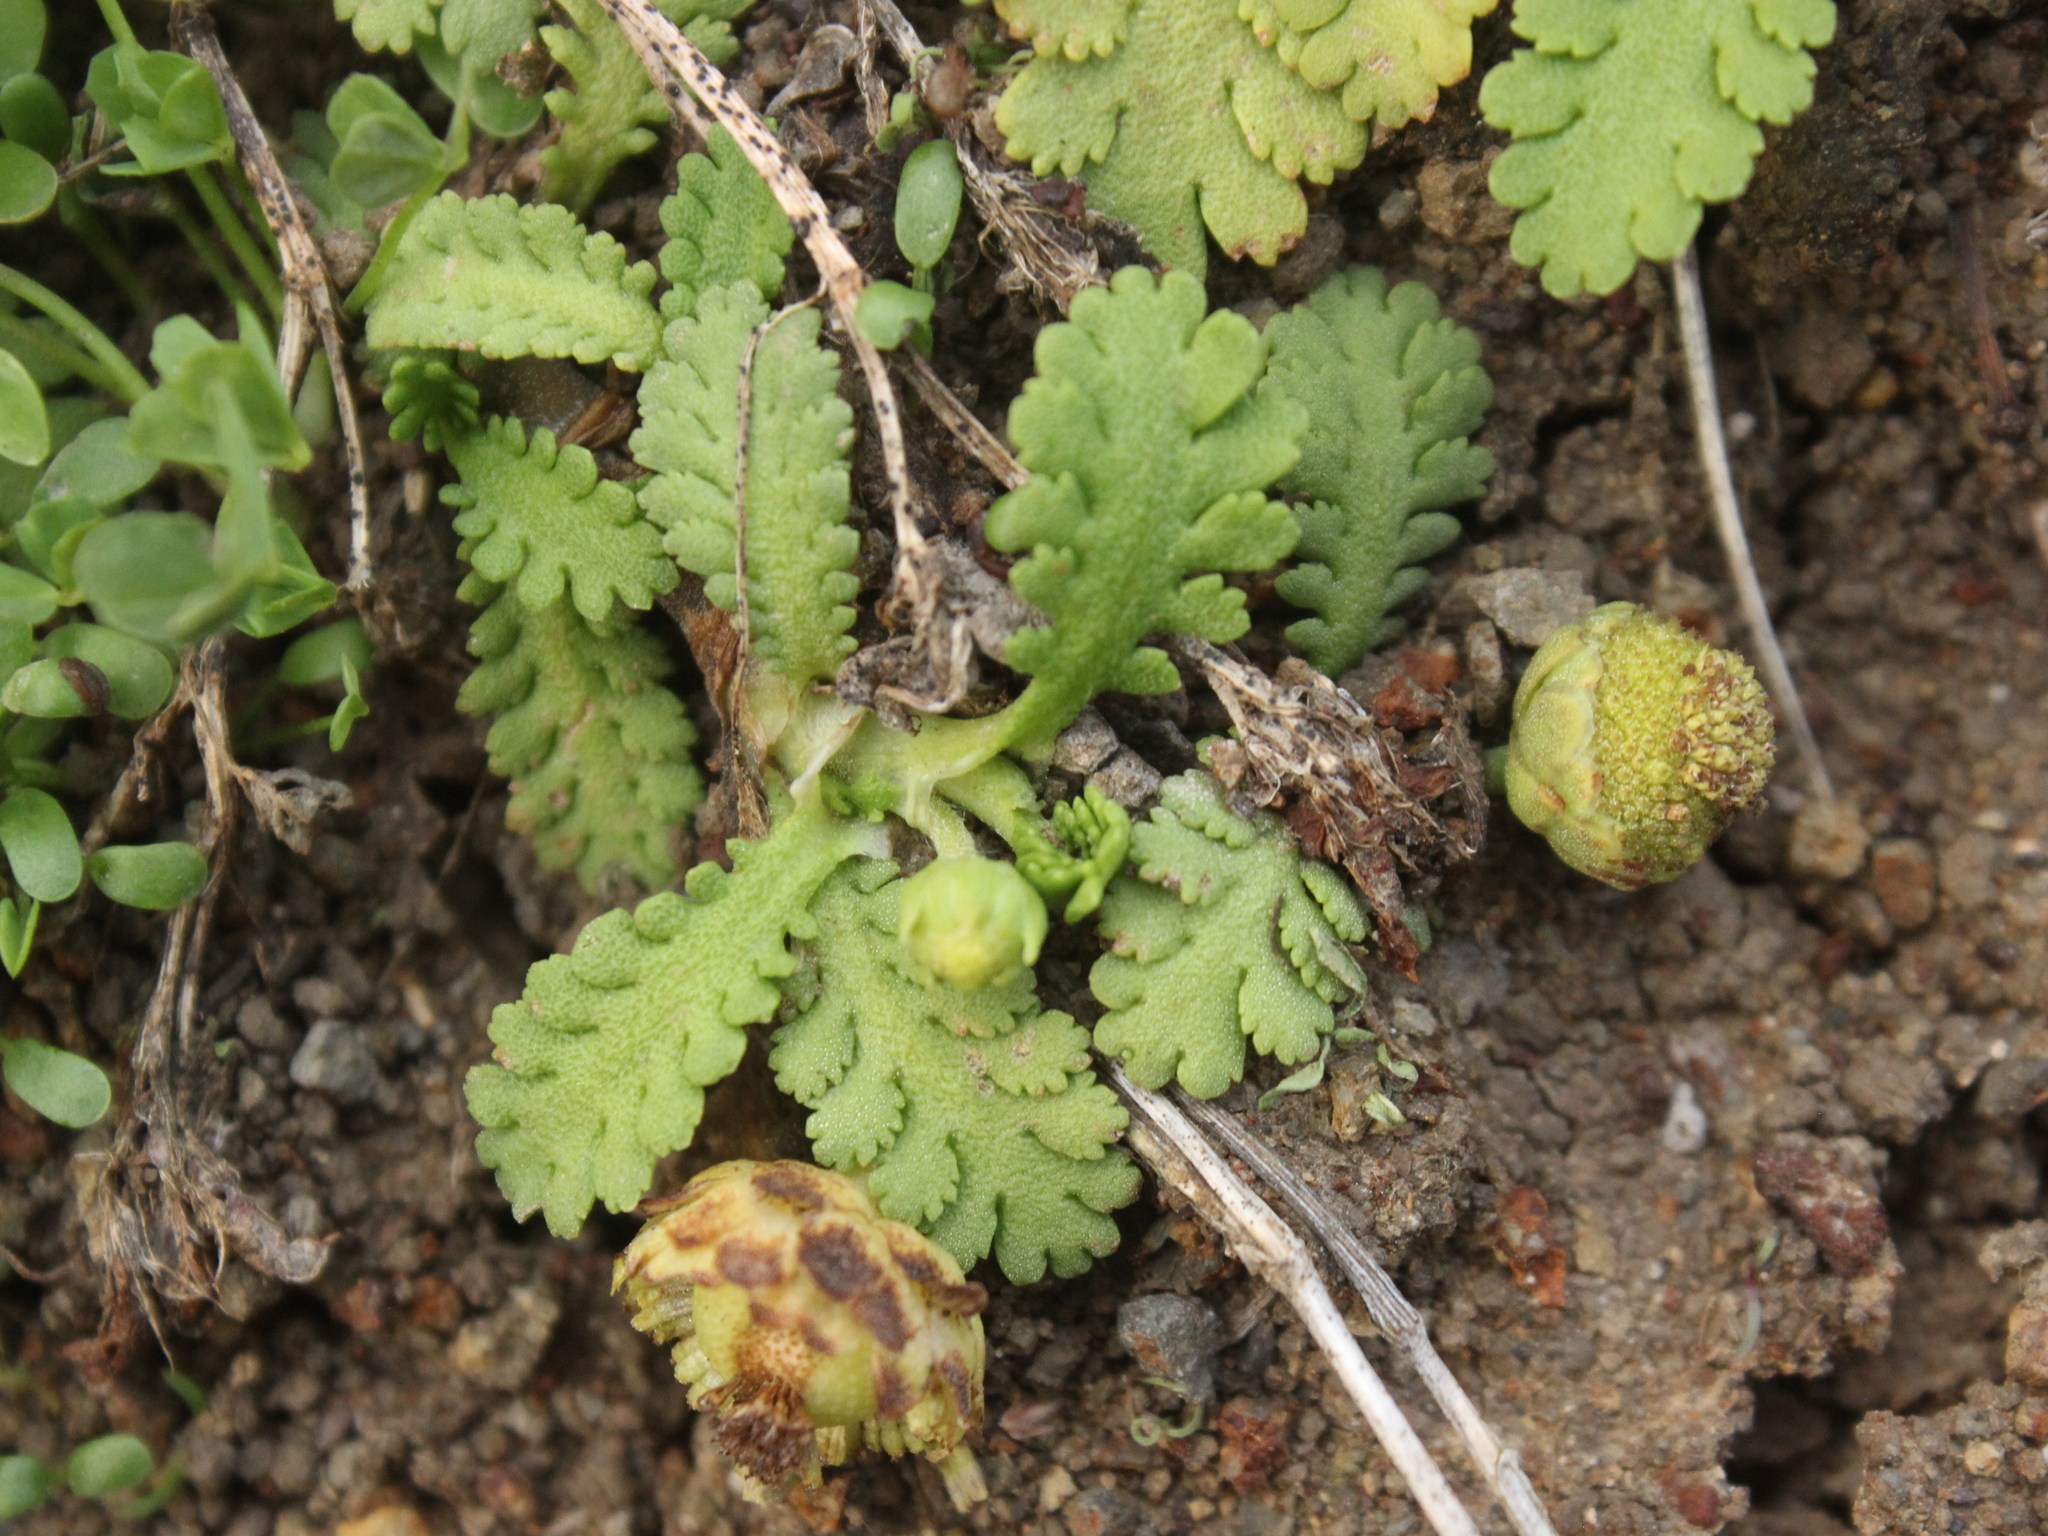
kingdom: Plantae
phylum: Tracheophyta
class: Magnoliopsida
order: Asterales
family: Asteraceae
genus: Leptinella
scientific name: Leptinella potentillina
